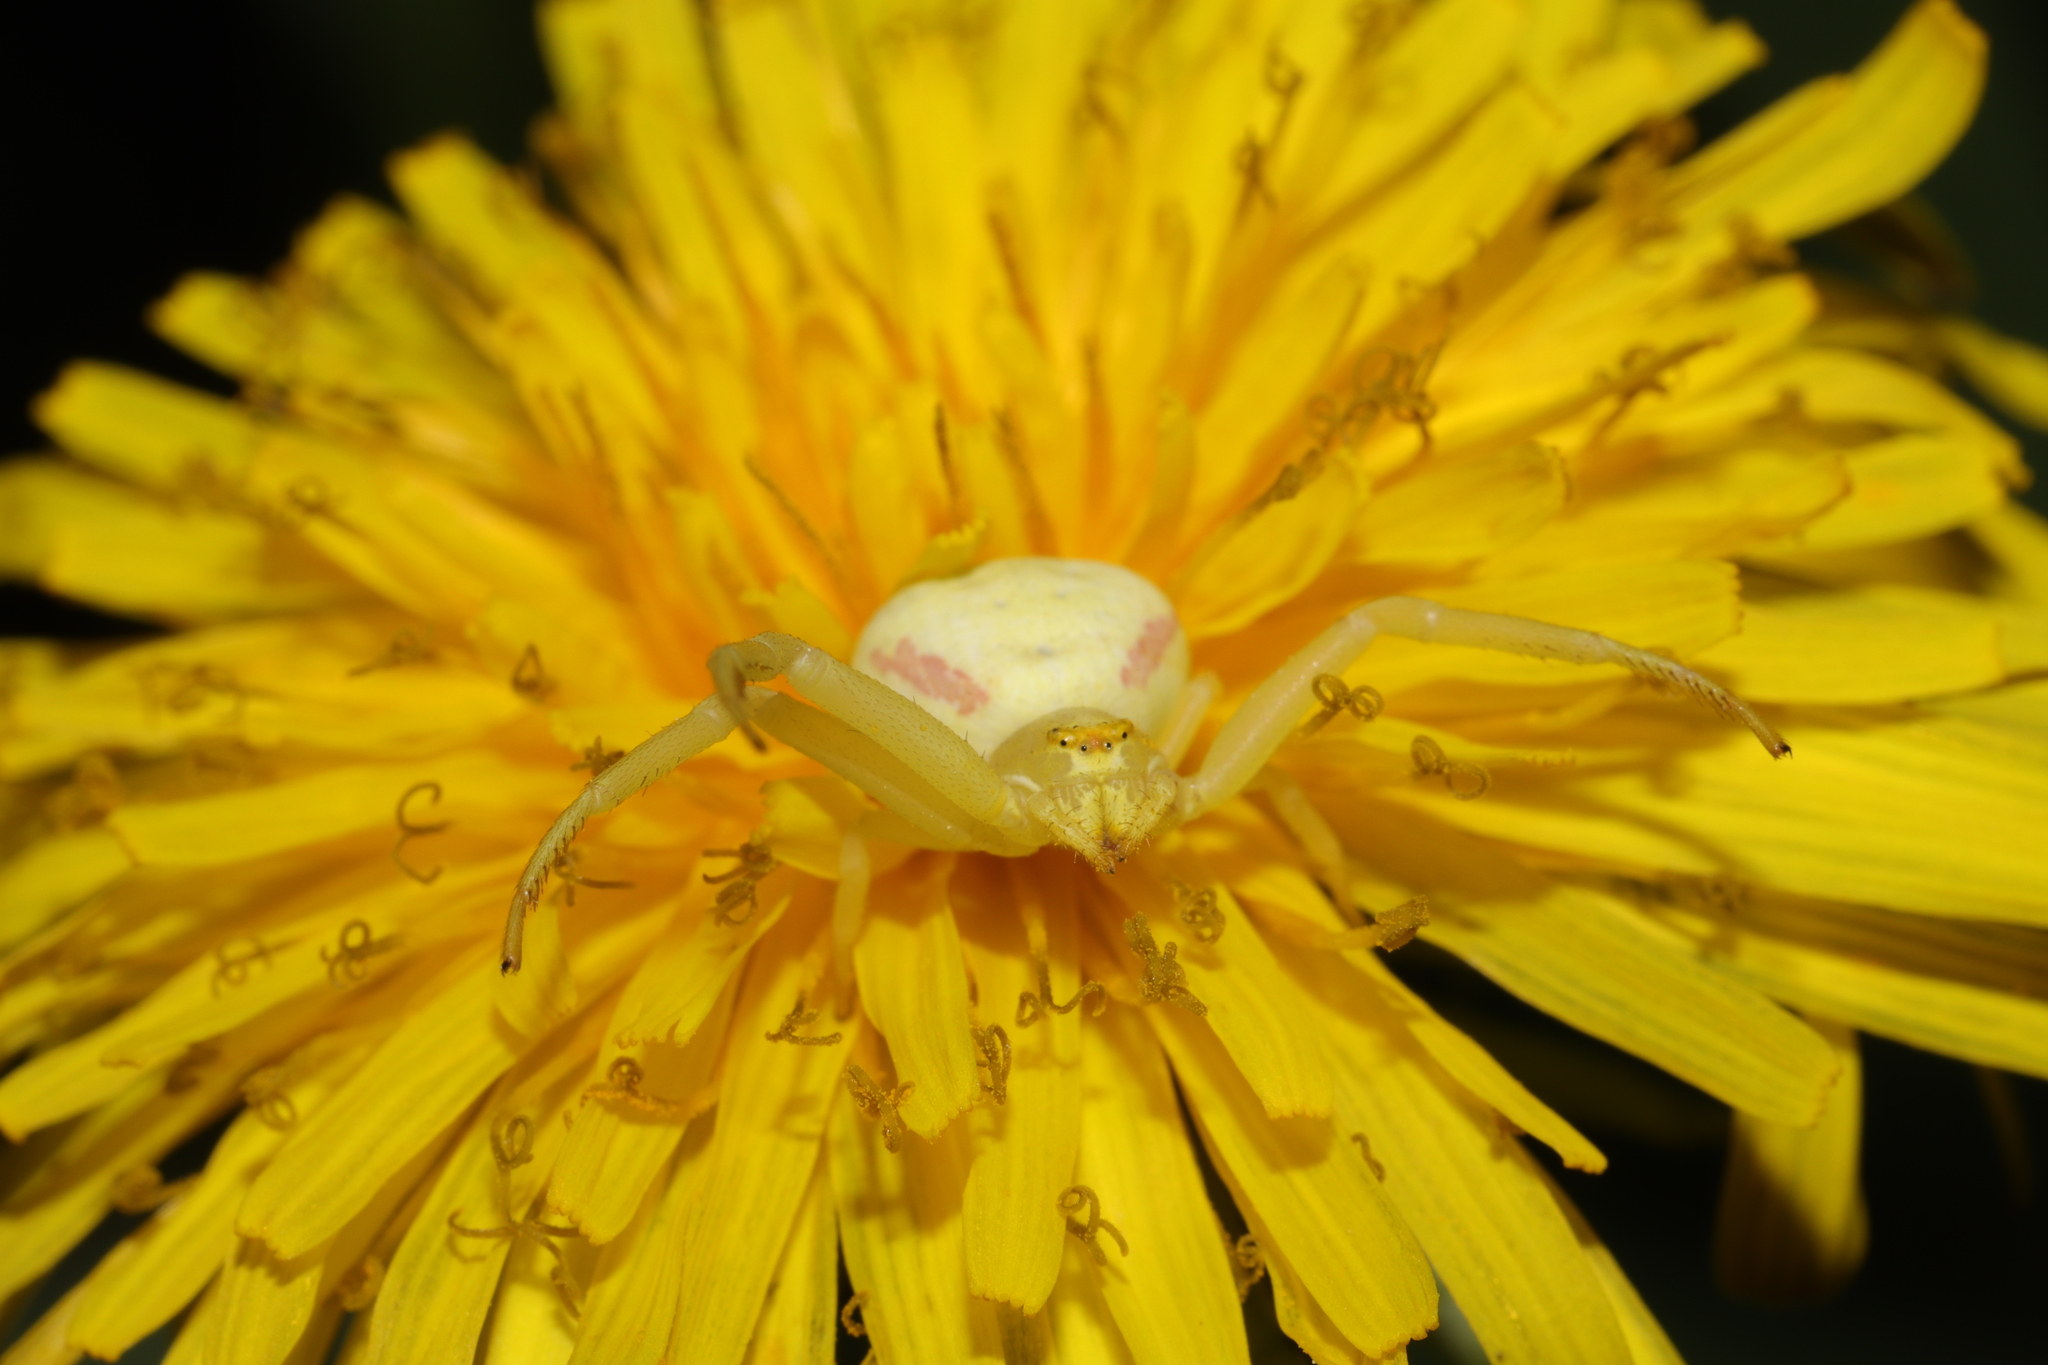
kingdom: Animalia
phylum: Arthropoda
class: Arachnida
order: Araneae
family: Thomisidae
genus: Misumena
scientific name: Misumena vatia
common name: Goldenrod crab spider
